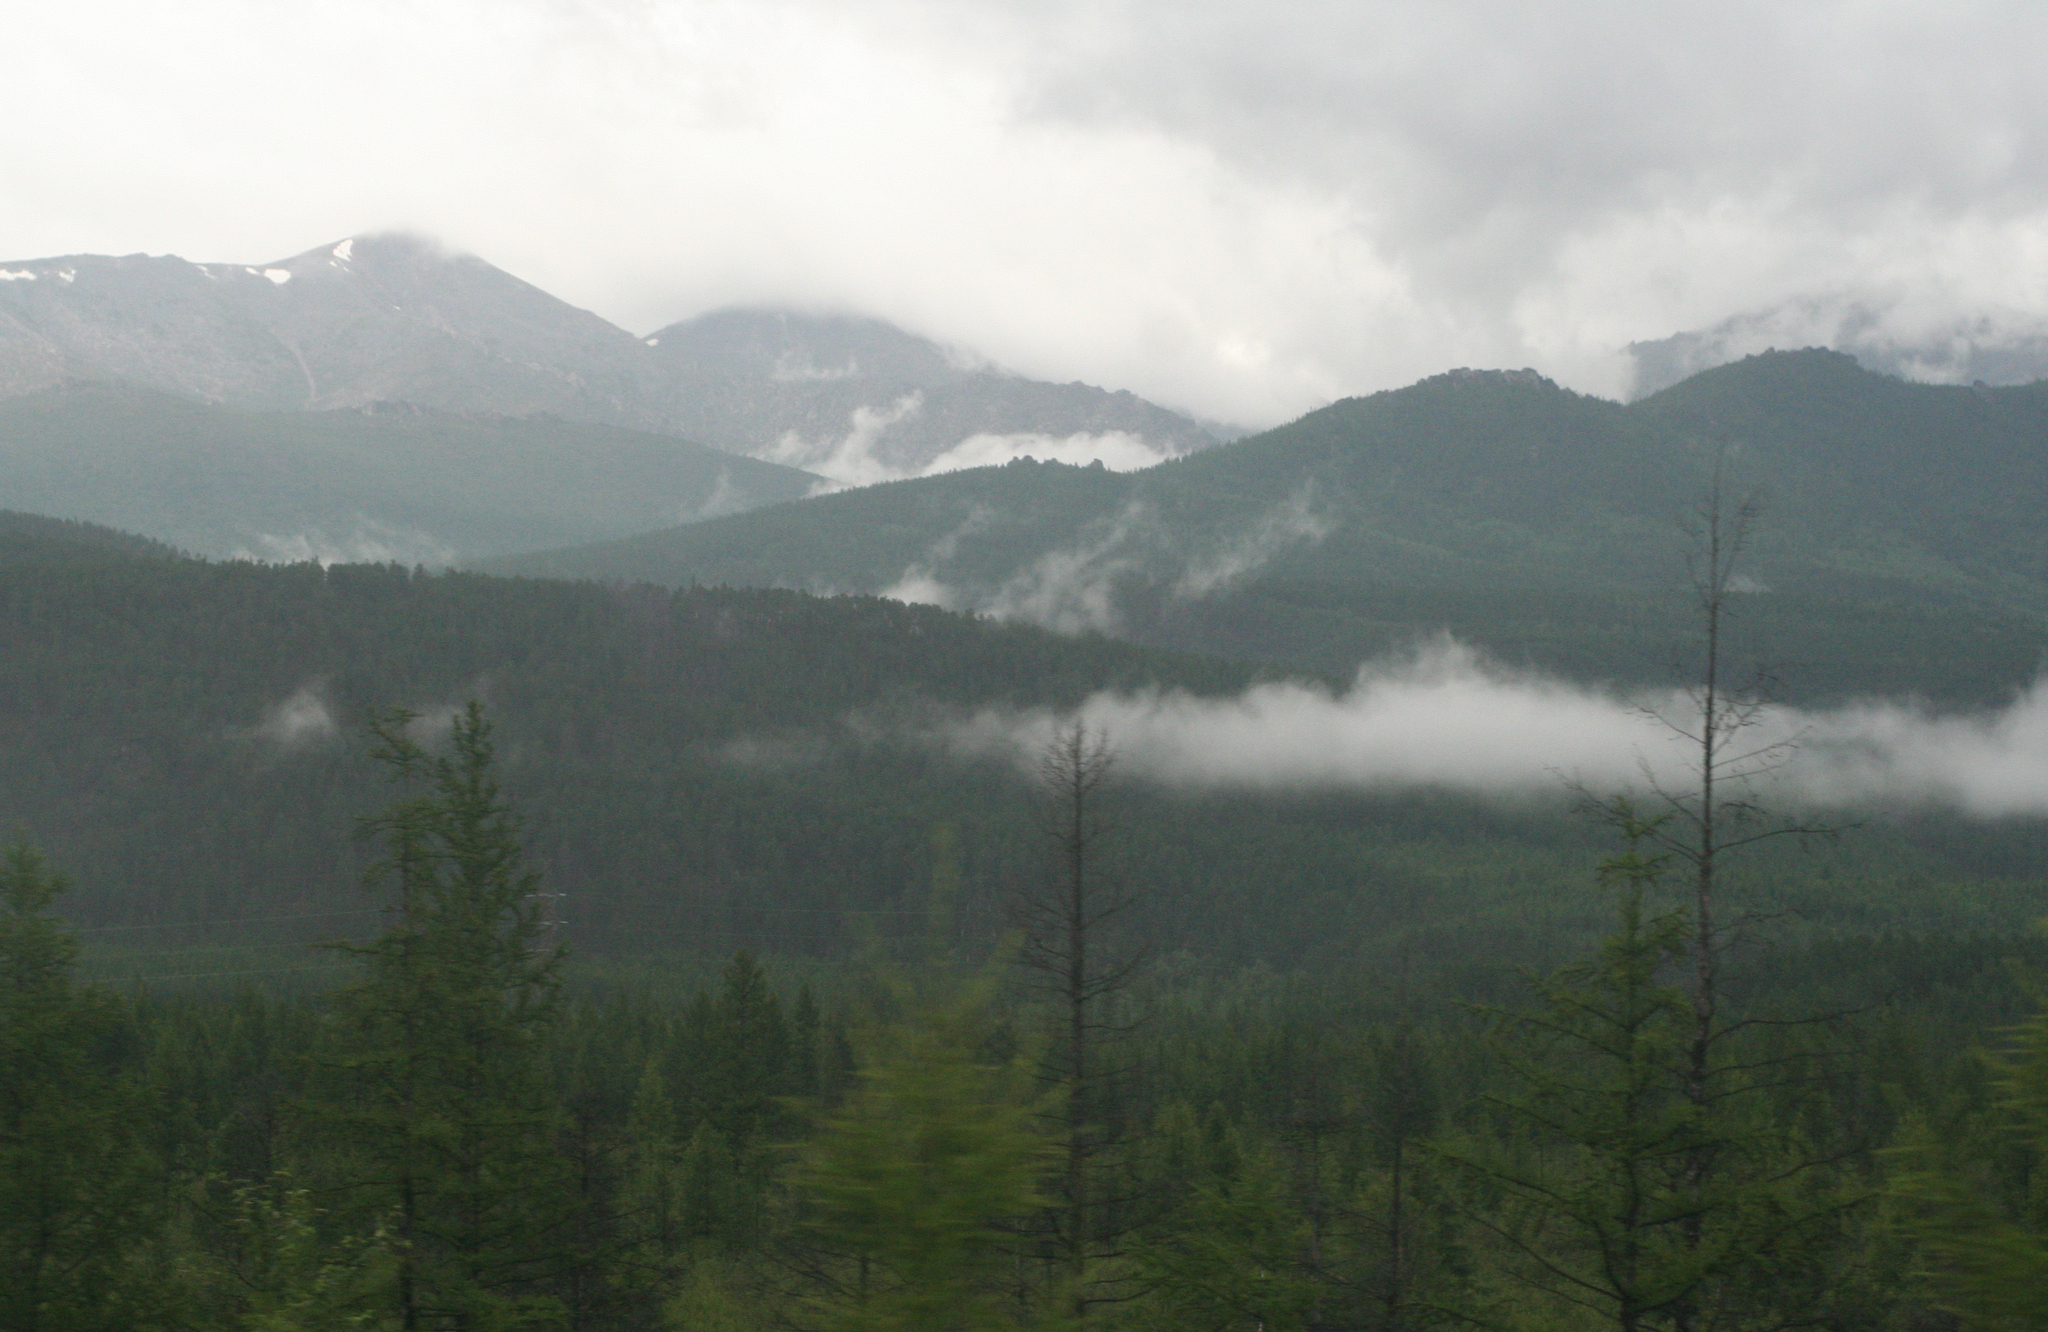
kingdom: Plantae
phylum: Tracheophyta
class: Pinopsida
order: Pinales
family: Pinaceae
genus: Larix
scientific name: Larix gmelinii
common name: Dahurian larch
